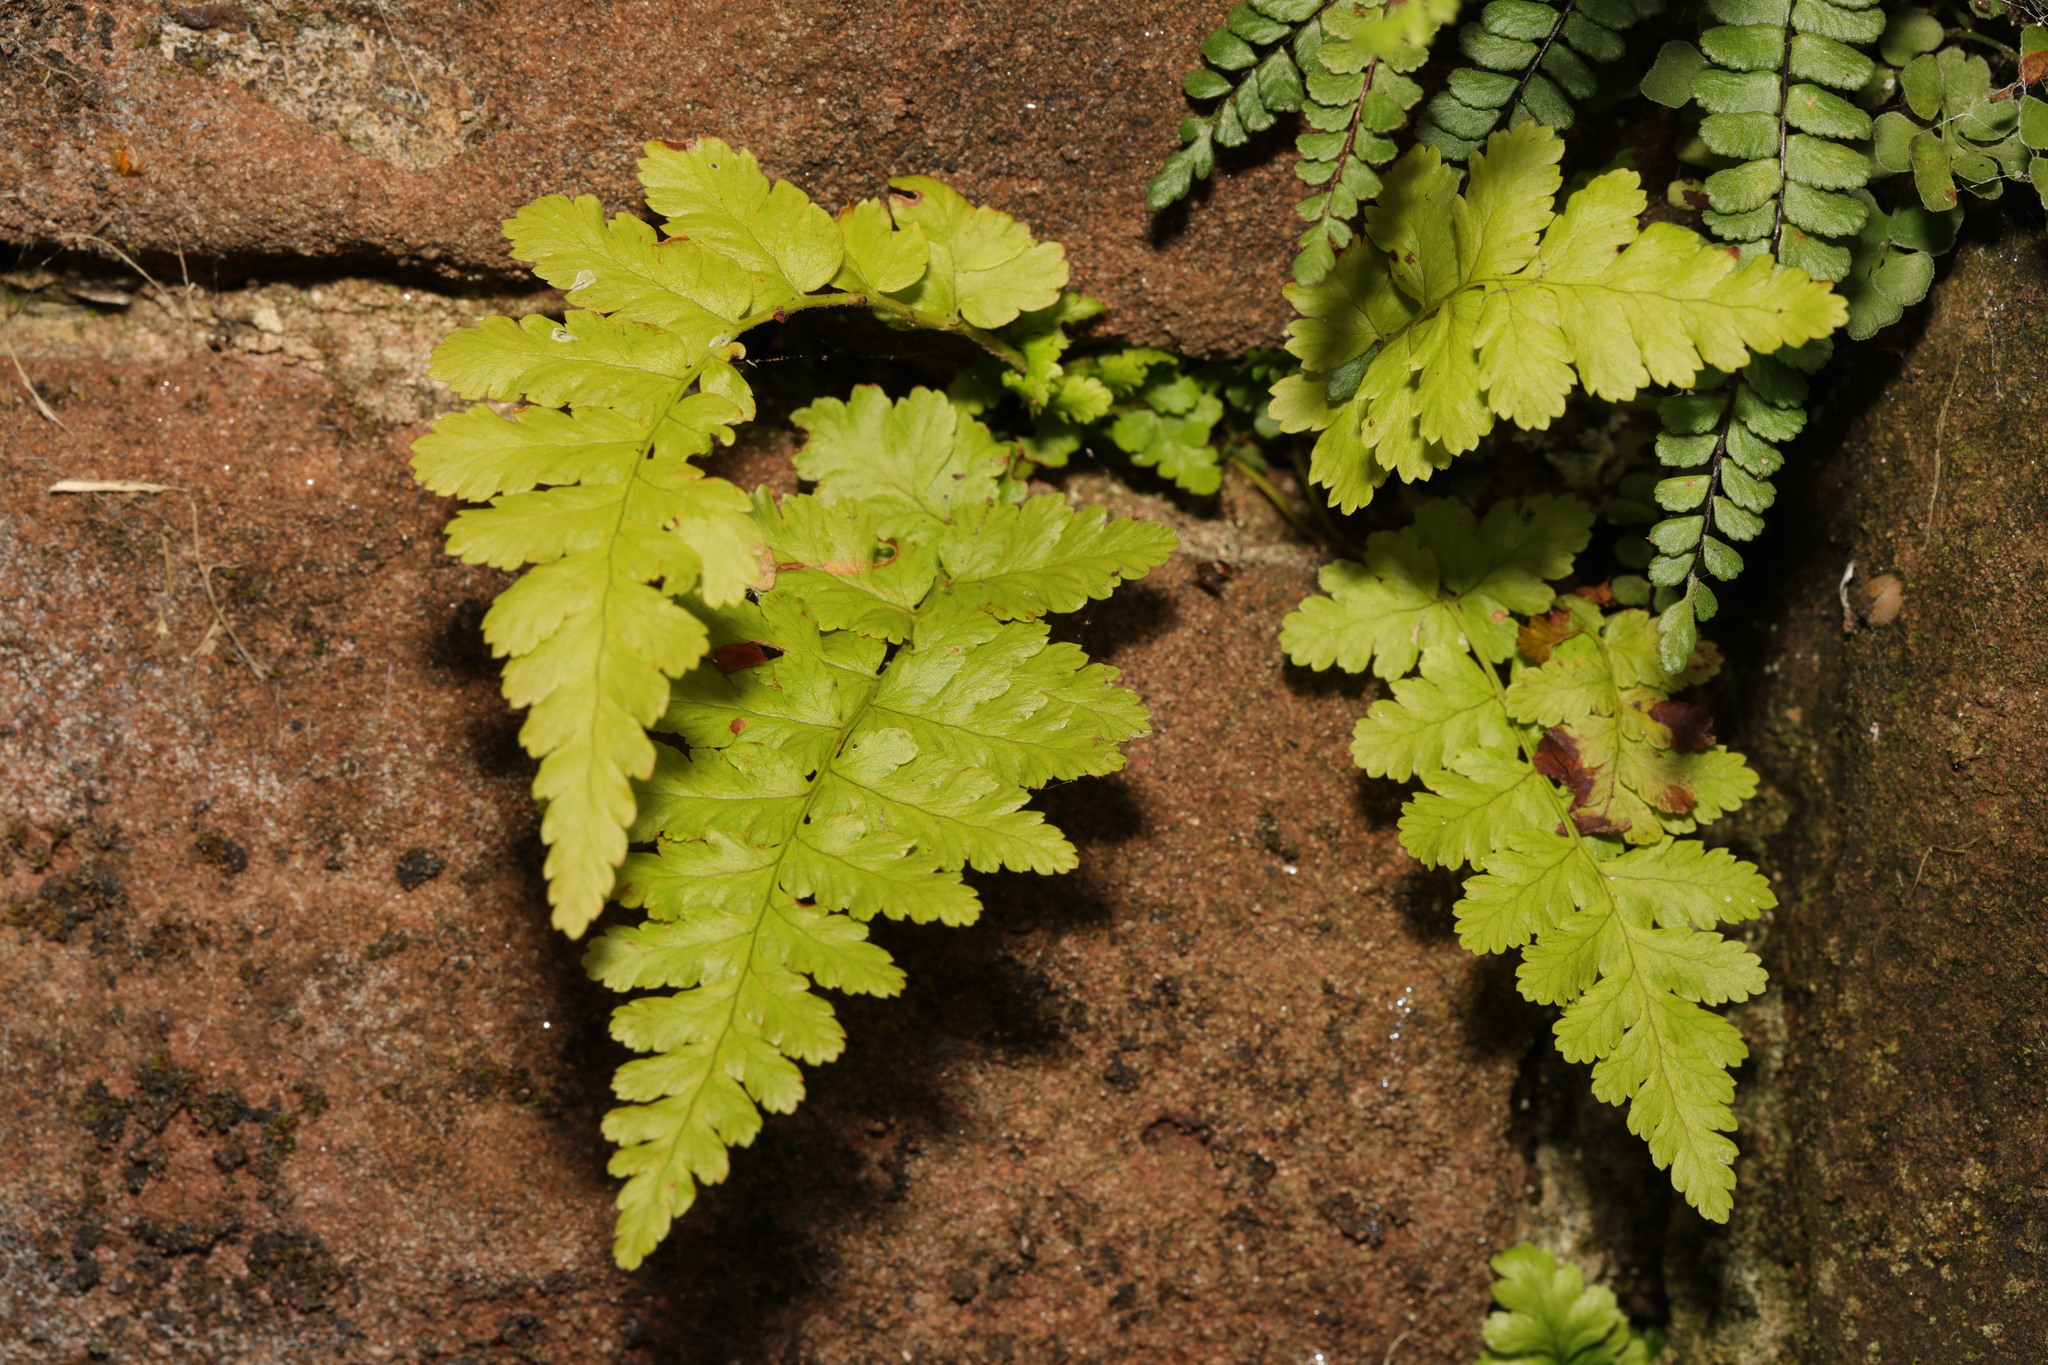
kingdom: Plantae
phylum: Tracheophyta
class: Polypodiopsida
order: Polypodiales
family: Dryopteridaceae
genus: Dryopteris
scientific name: Dryopteris filix-mas
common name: Male fern
